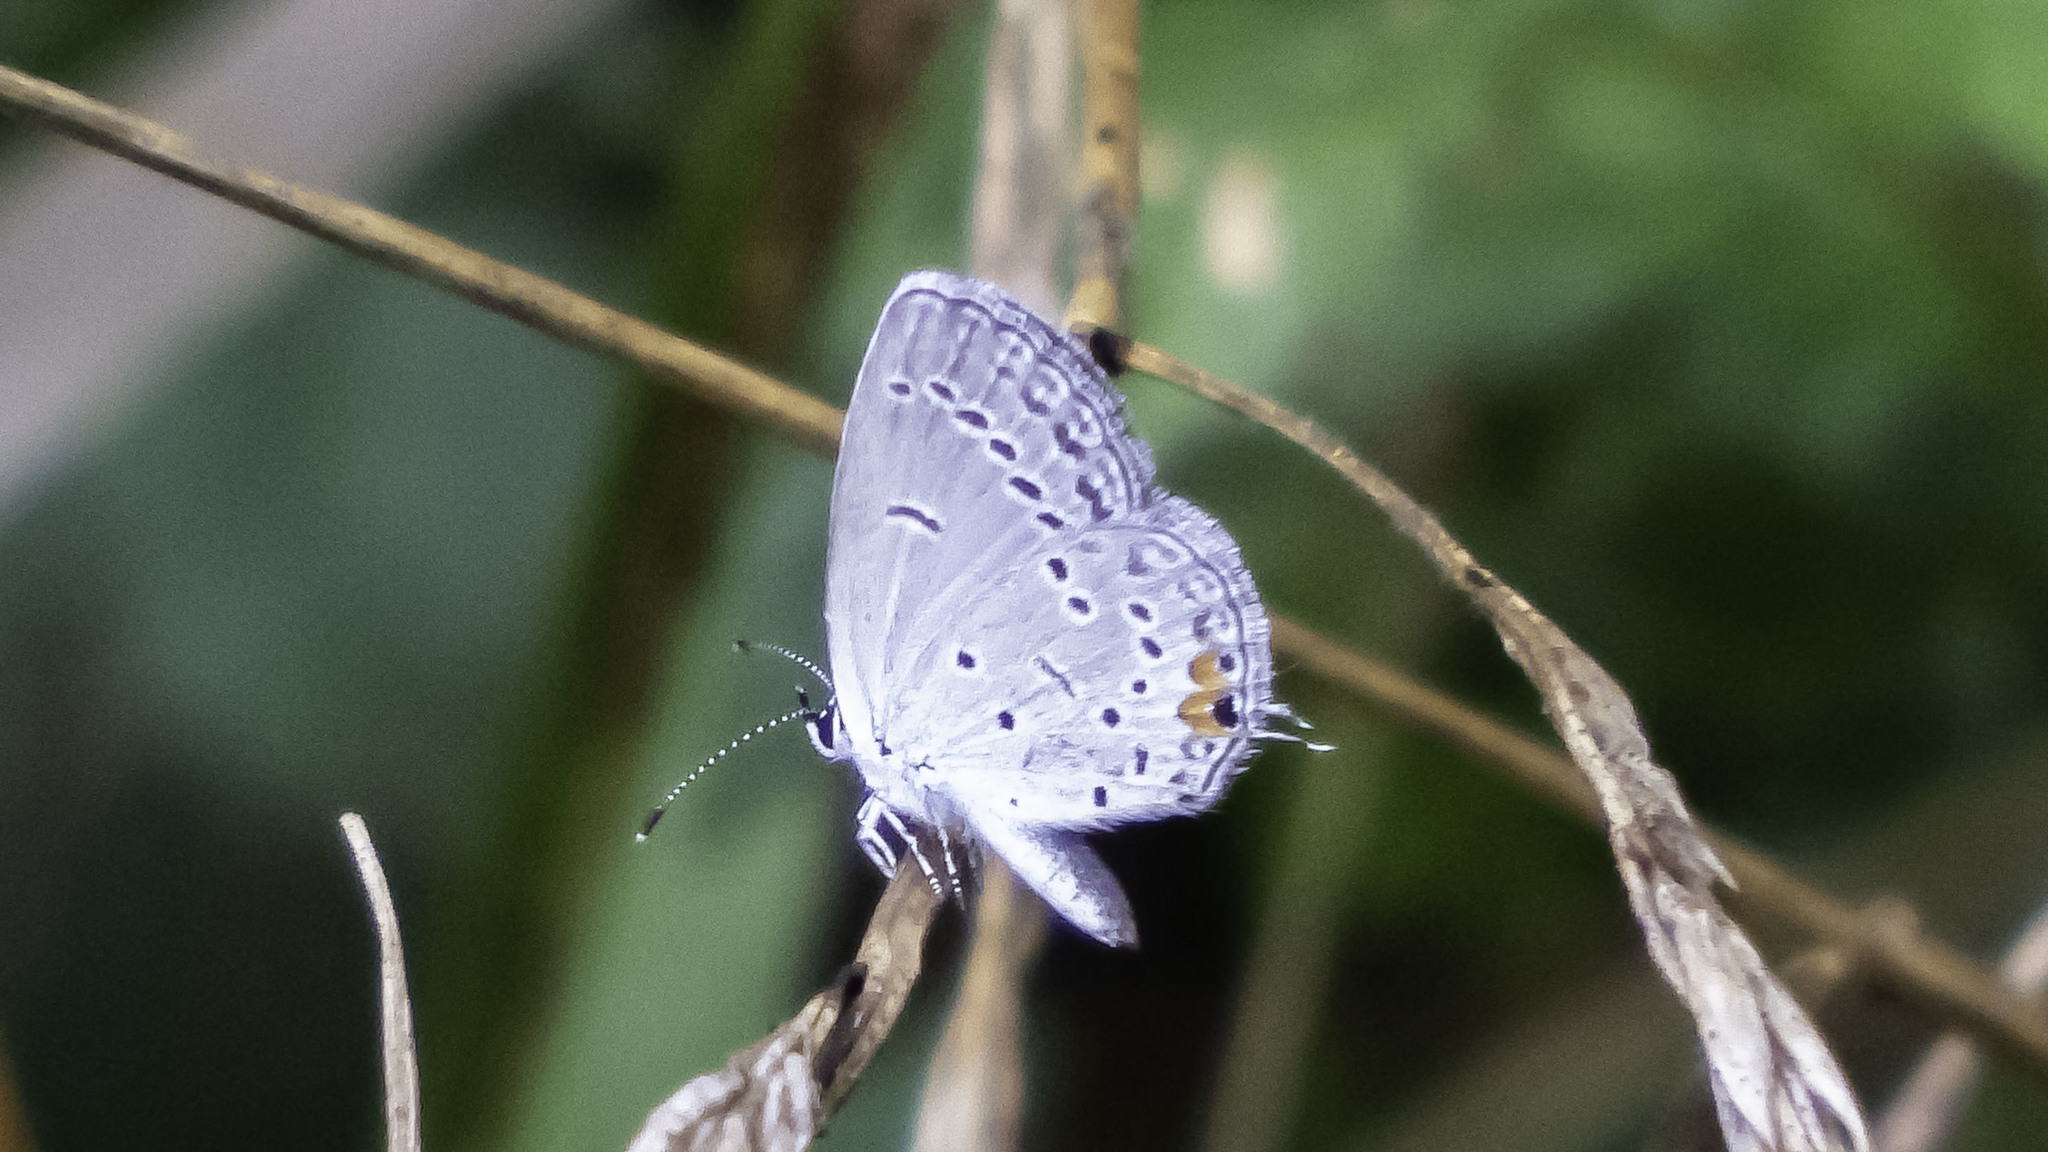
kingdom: Animalia
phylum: Arthropoda
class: Insecta
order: Lepidoptera
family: Lycaenidae
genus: Elkalyce
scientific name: Elkalyce comyntas
